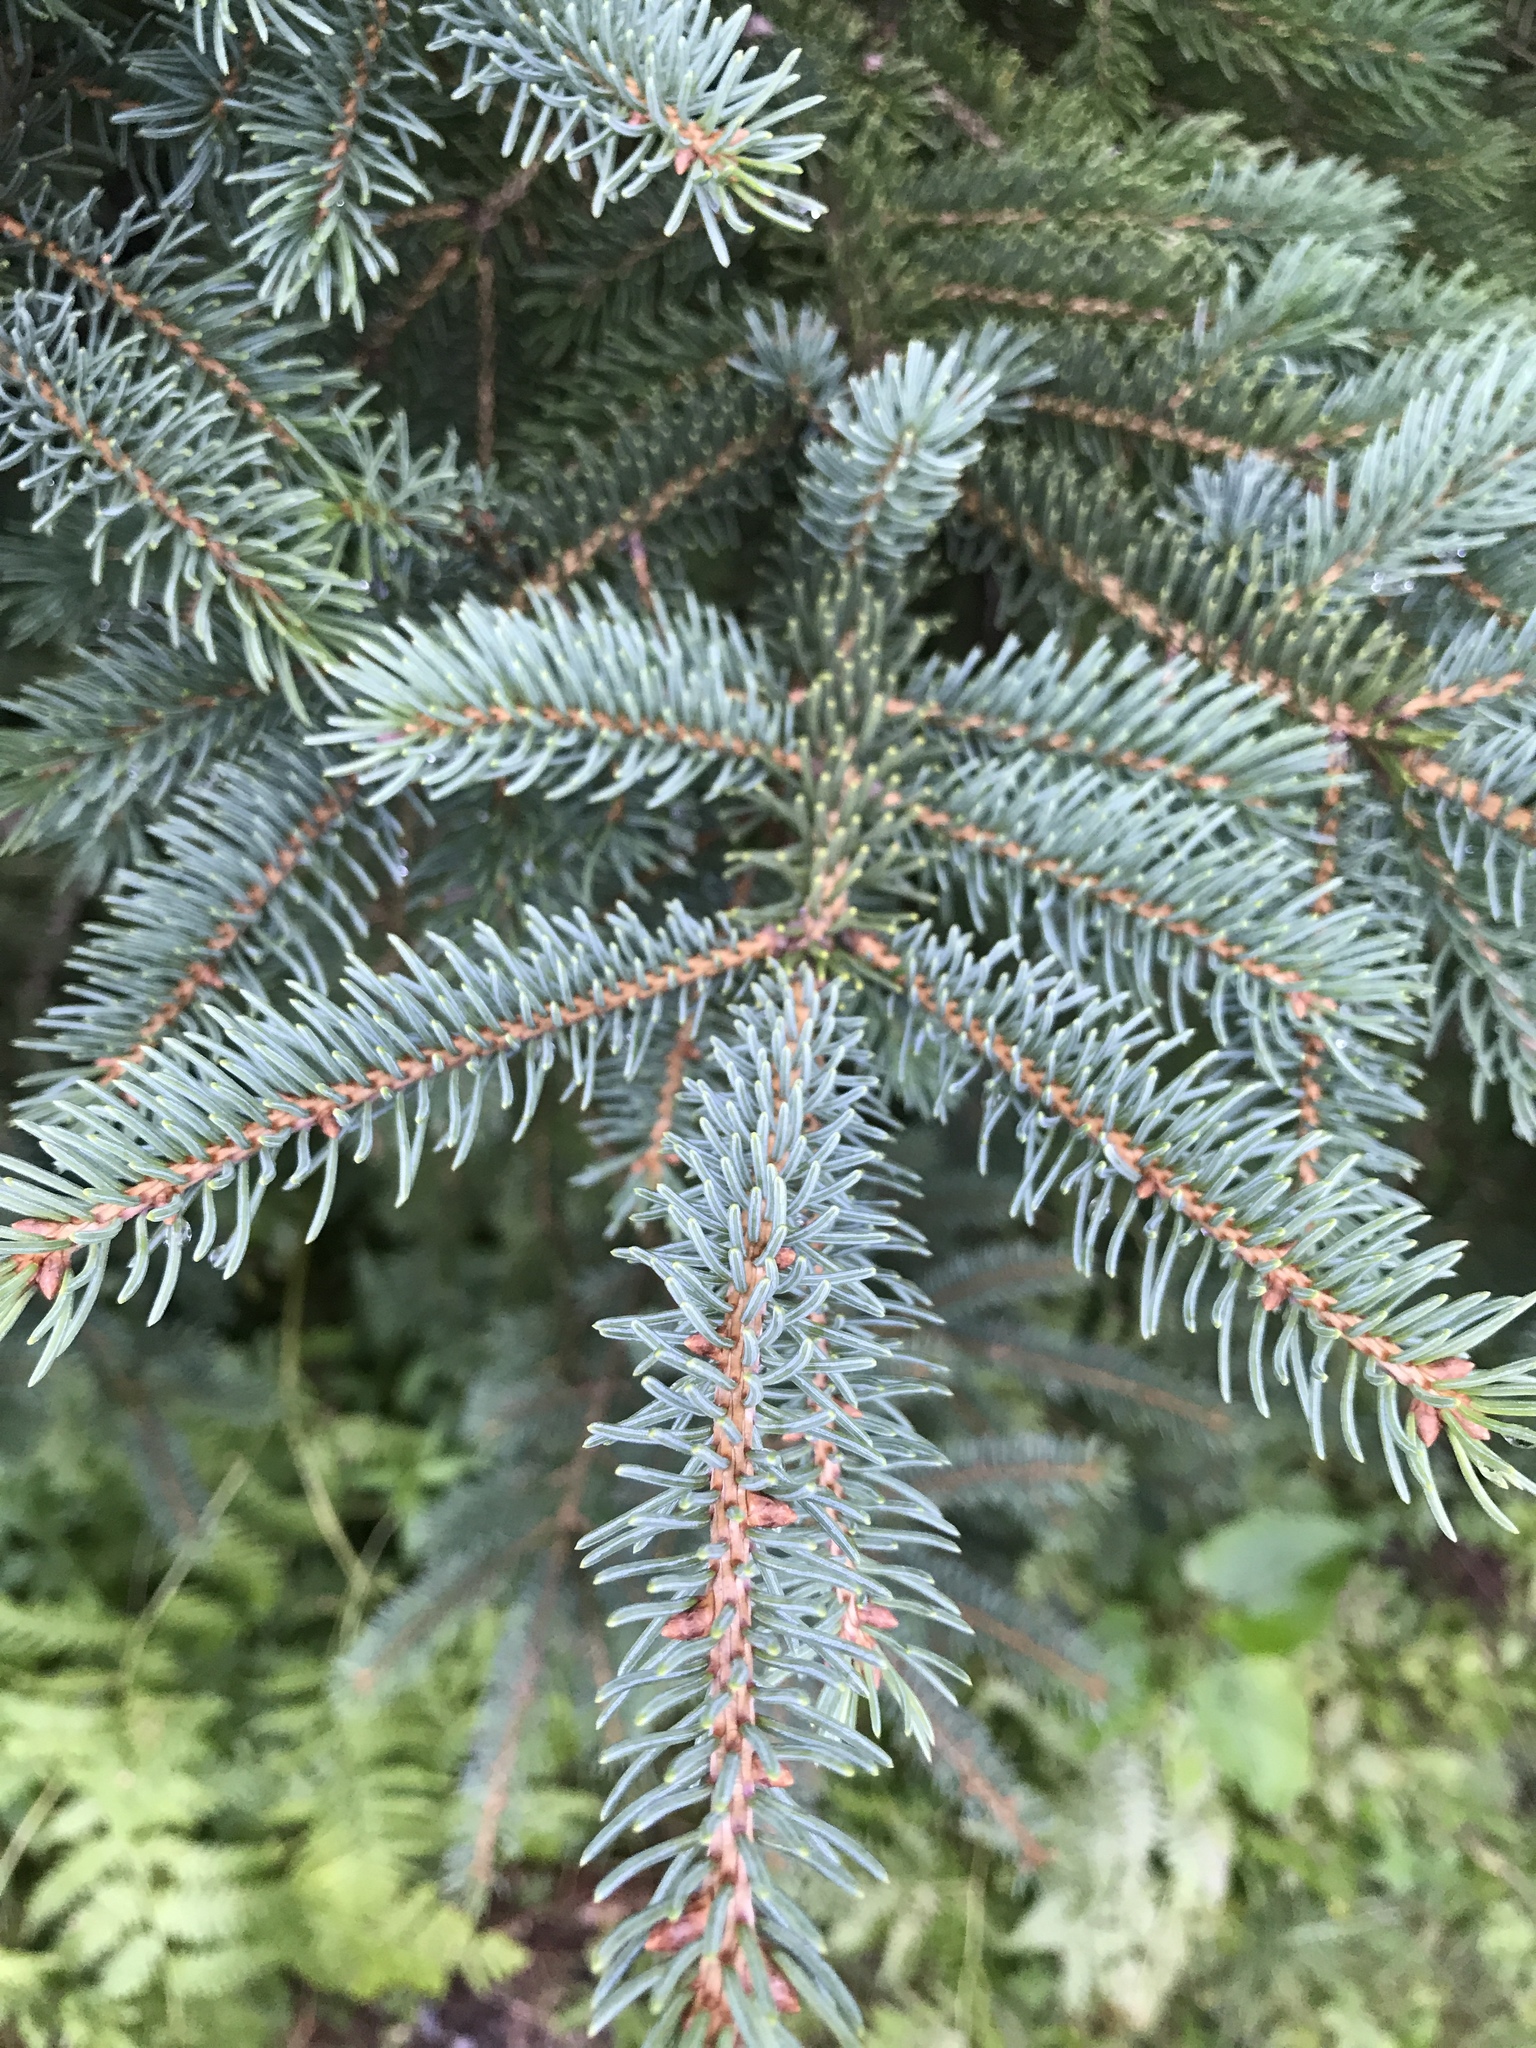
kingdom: Plantae
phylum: Tracheophyta
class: Pinopsida
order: Pinales
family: Pinaceae
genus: Picea
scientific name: Picea glauca
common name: White spruce
